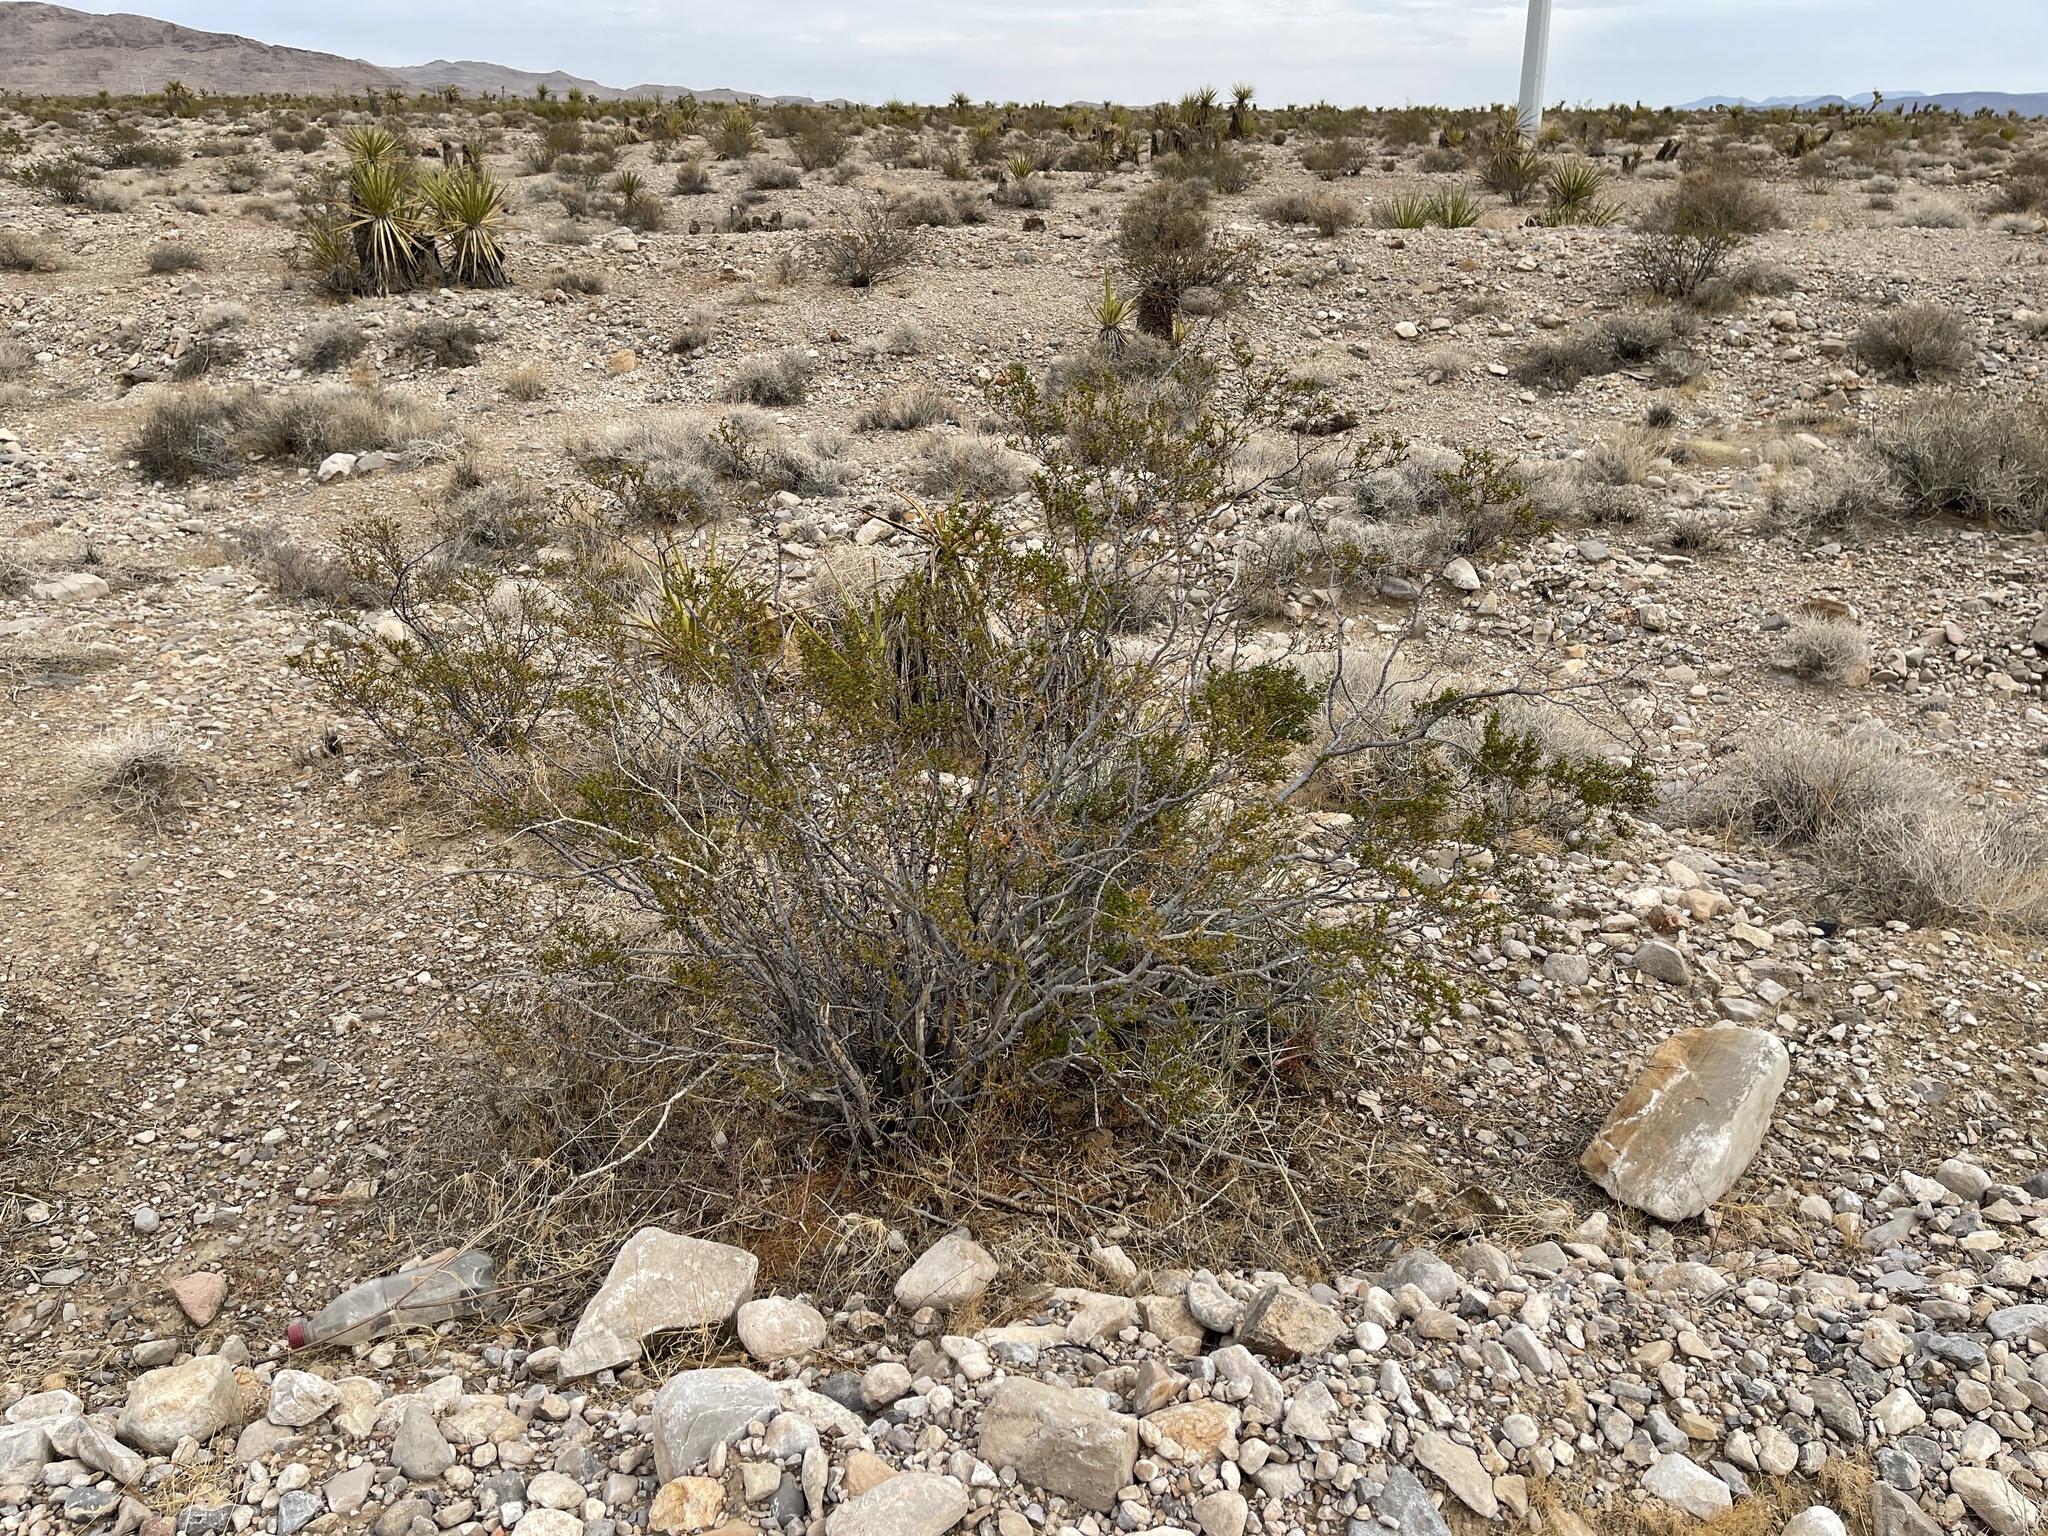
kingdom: Plantae
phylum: Tracheophyta
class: Magnoliopsida
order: Zygophyllales
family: Zygophyllaceae
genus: Larrea
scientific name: Larrea tridentata
